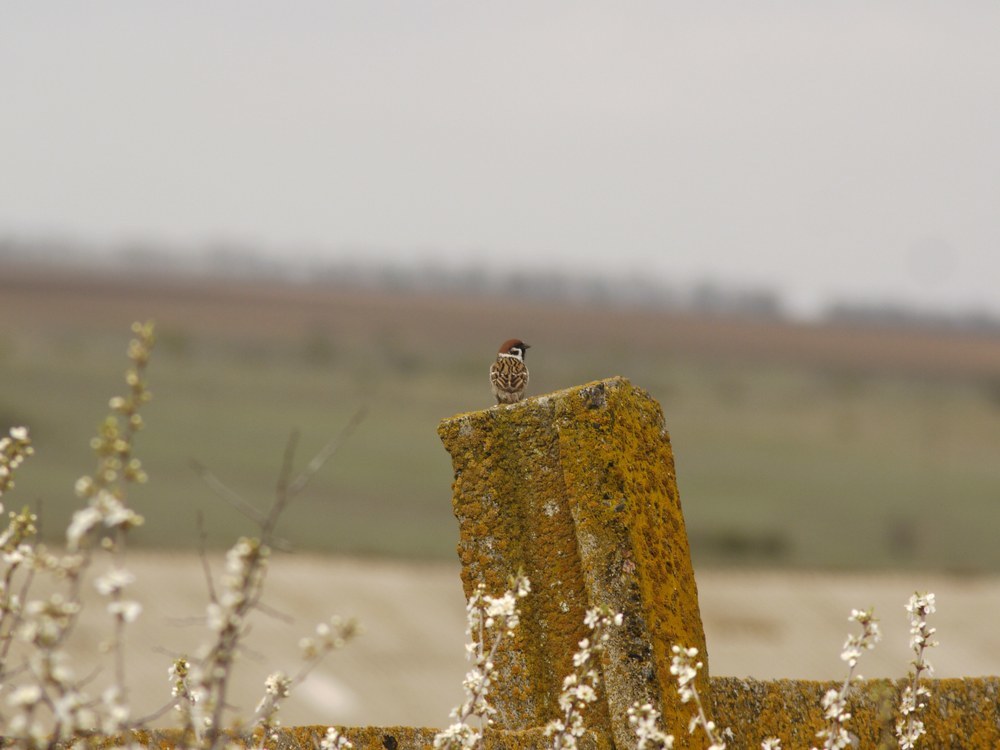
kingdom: Animalia
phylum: Chordata
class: Aves
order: Passeriformes
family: Passeridae
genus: Passer
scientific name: Passer montanus
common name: Eurasian tree sparrow
